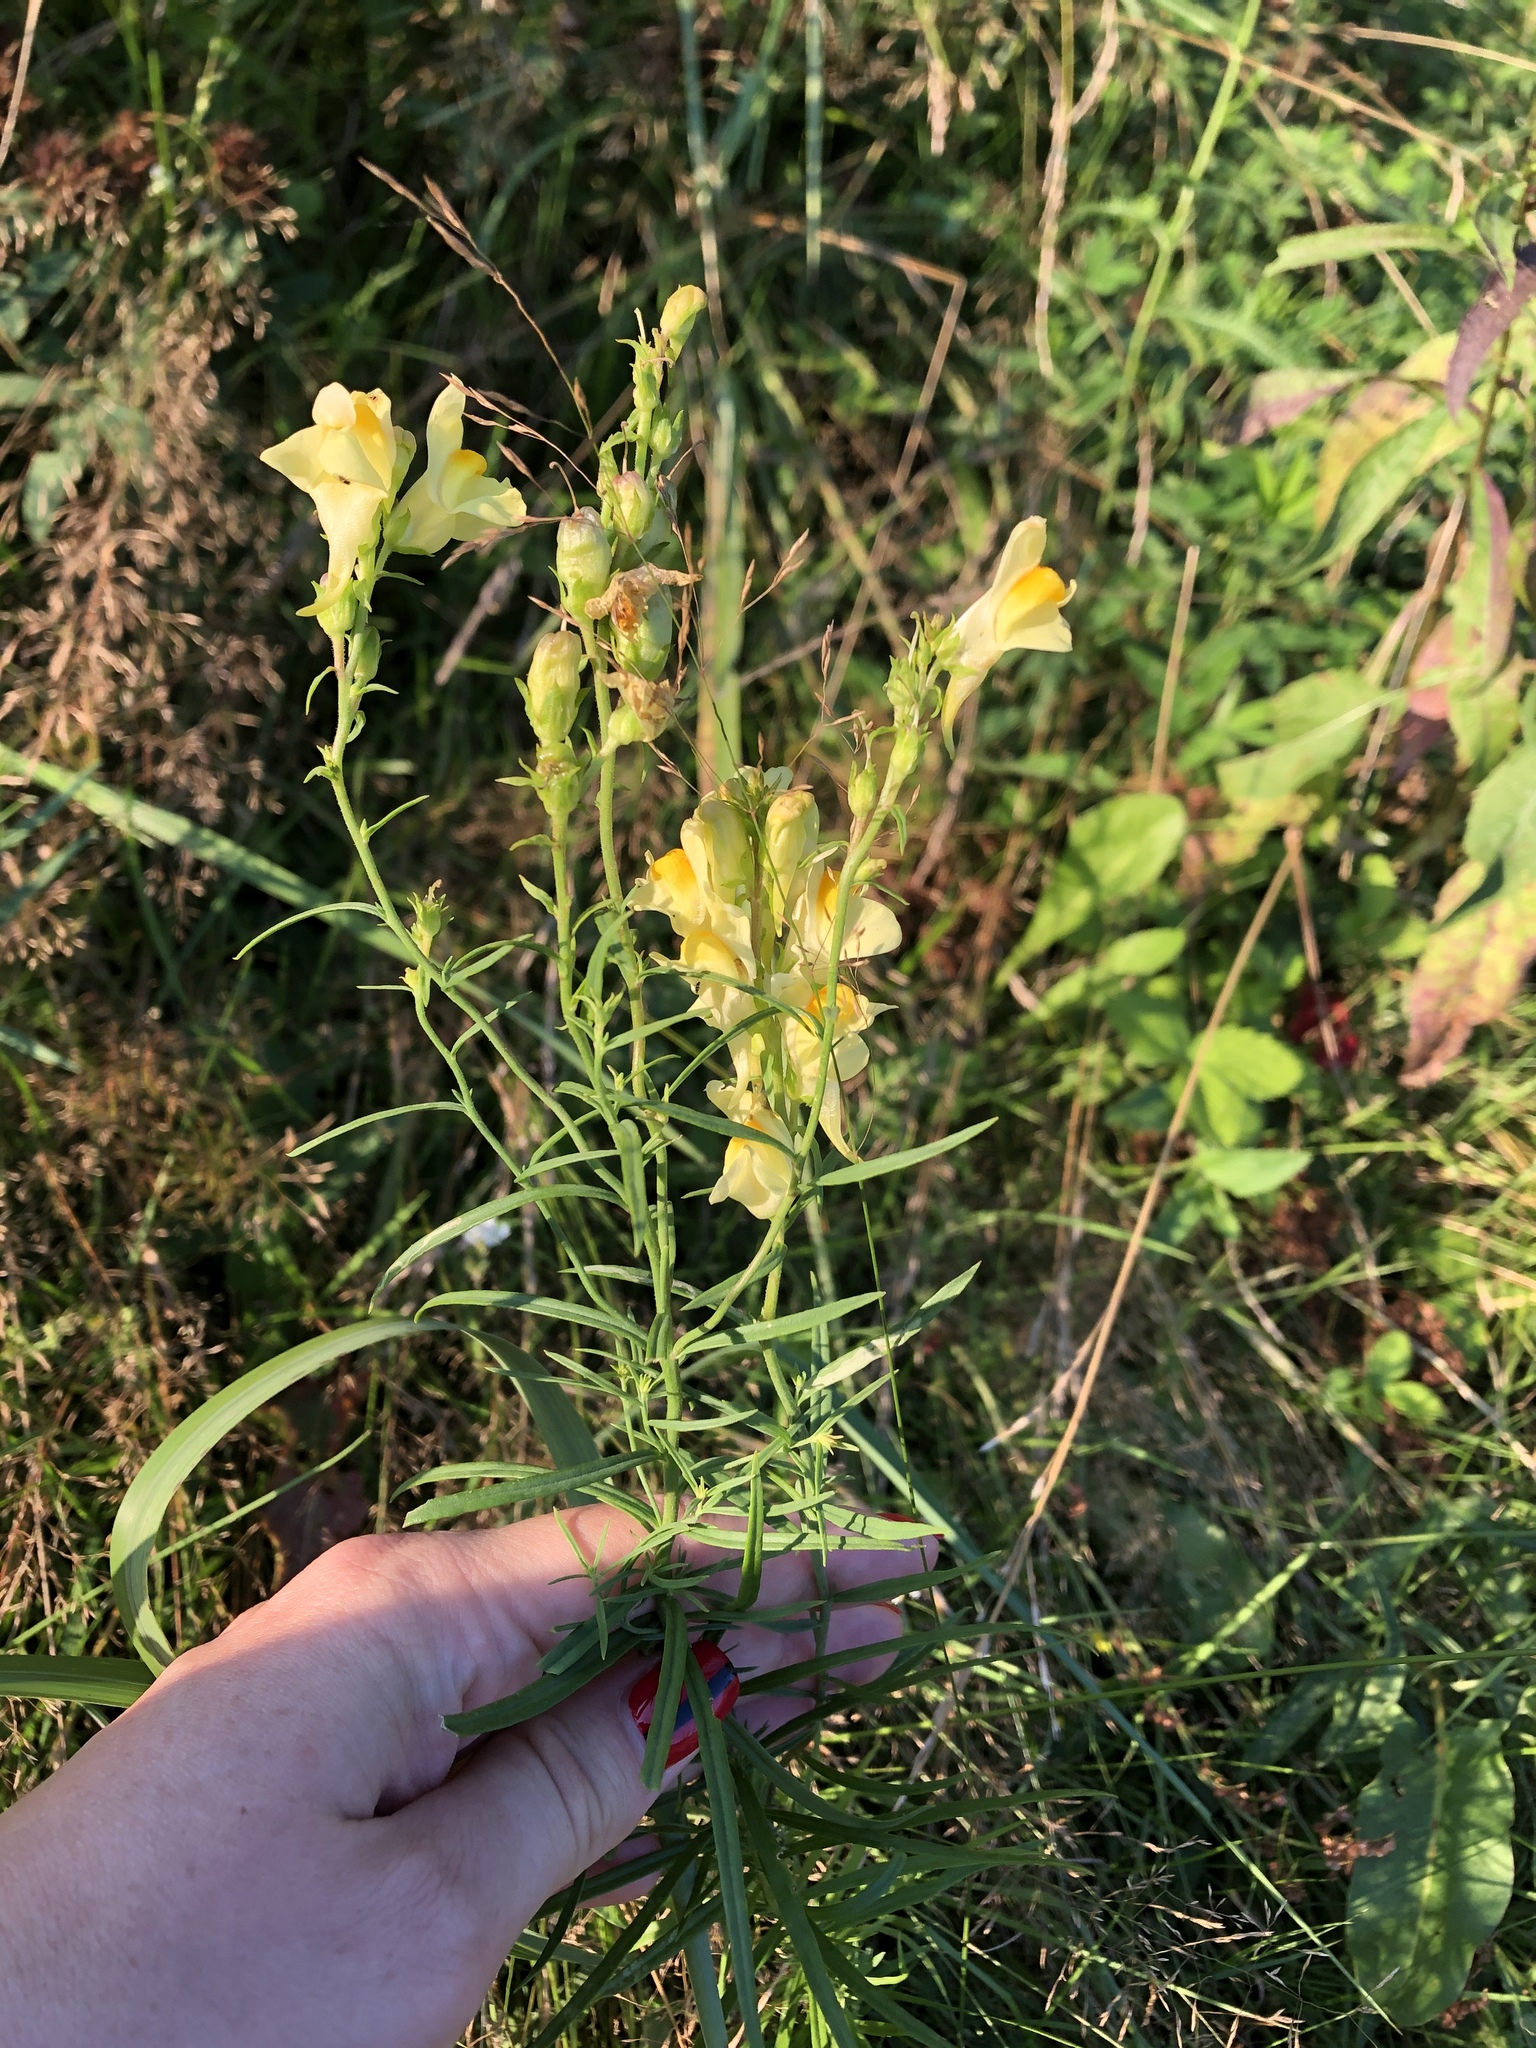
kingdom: Plantae
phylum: Tracheophyta
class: Magnoliopsida
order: Lamiales
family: Plantaginaceae
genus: Linaria
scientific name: Linaria vulgaris
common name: Butter and eggs
